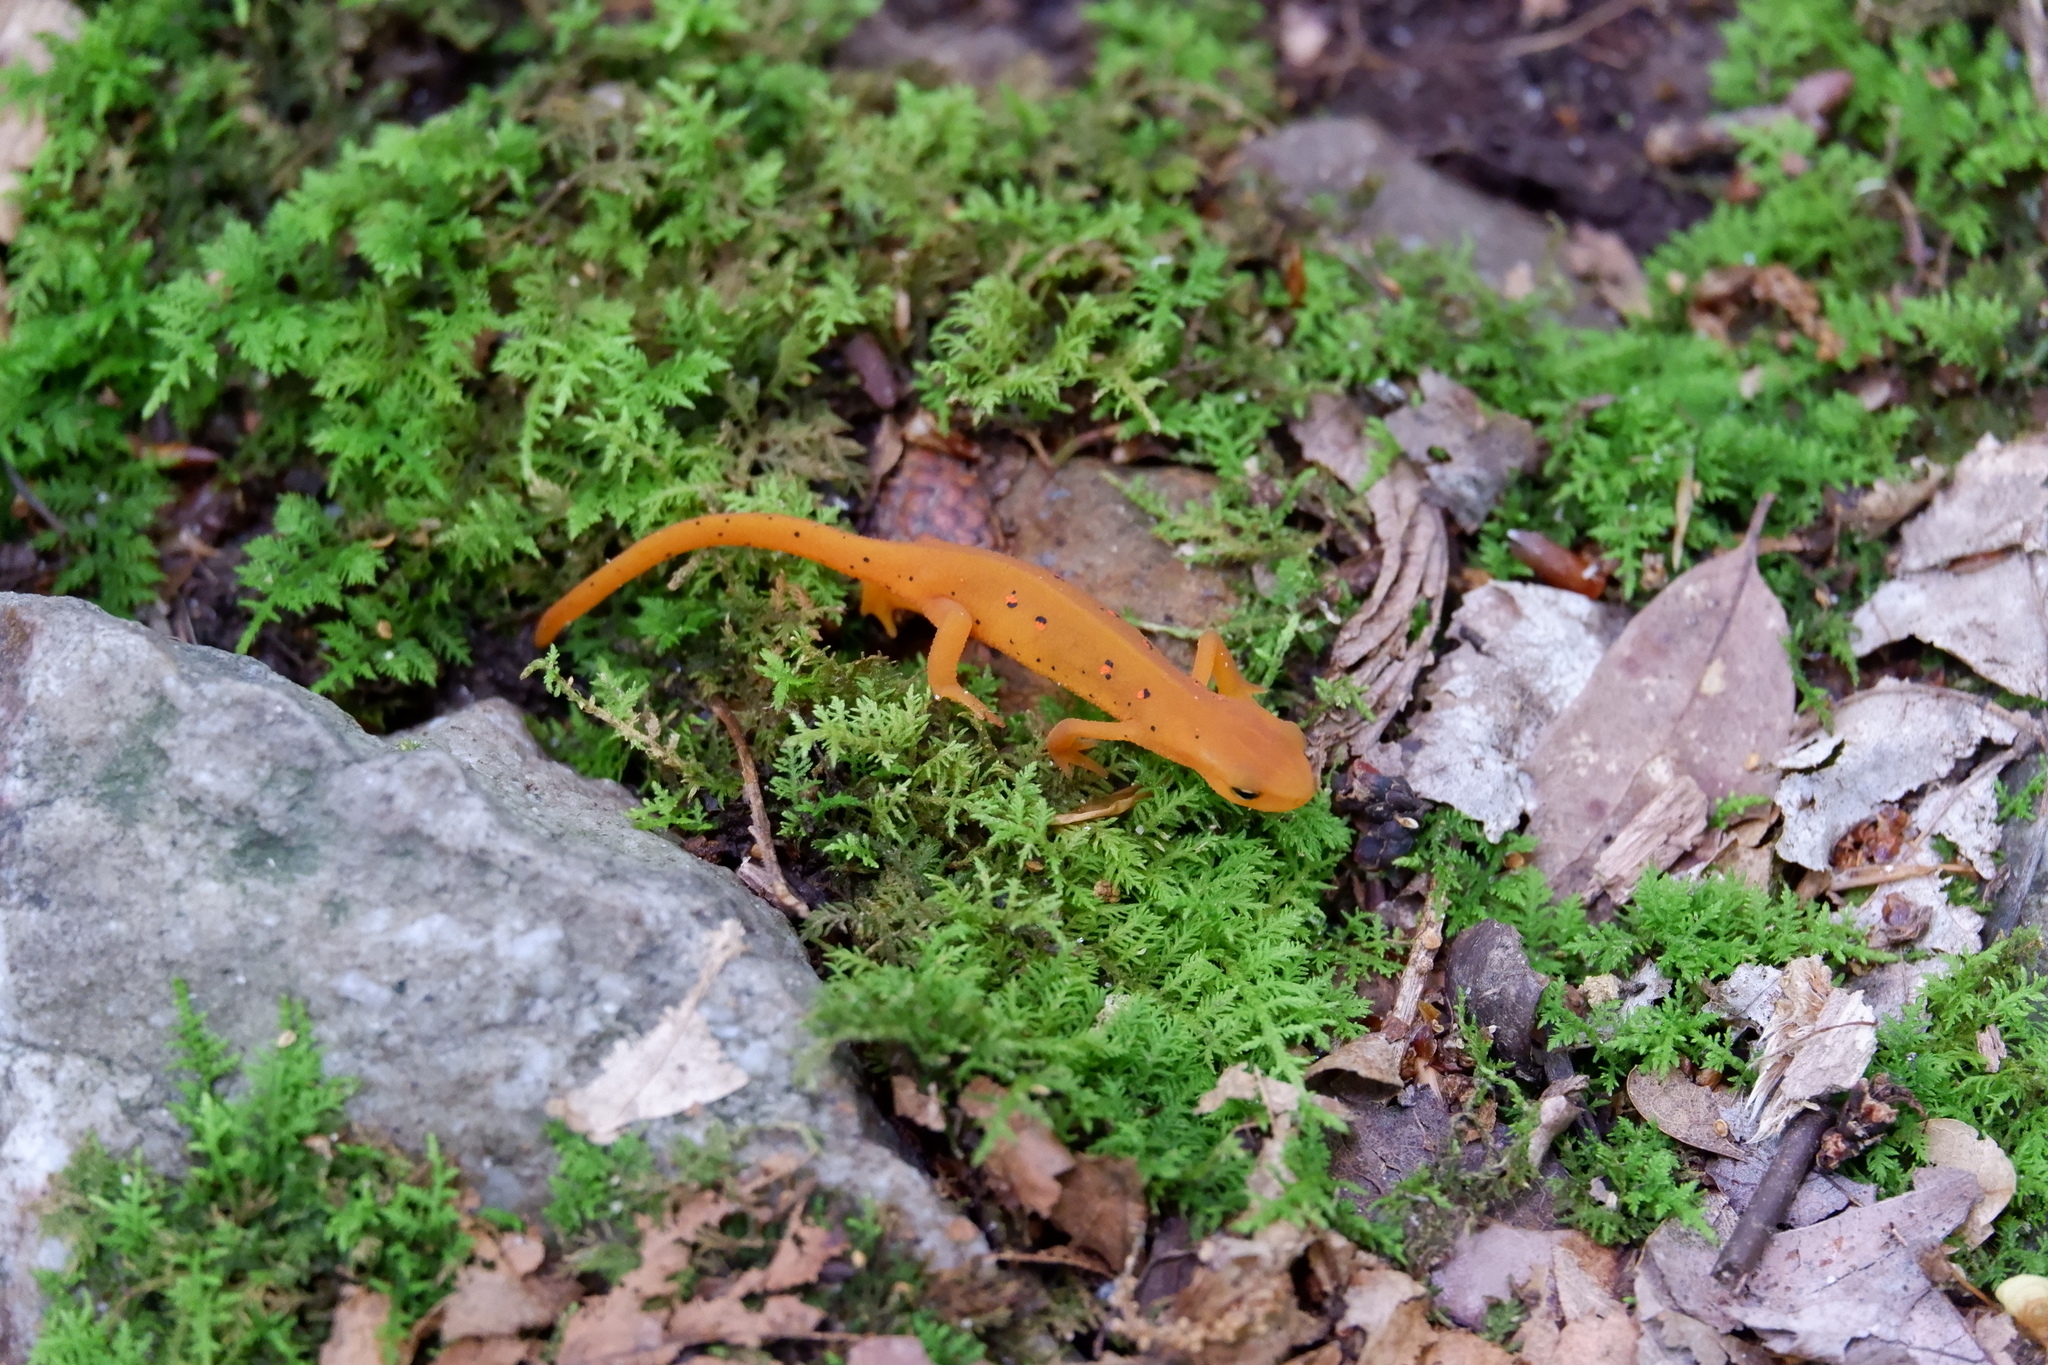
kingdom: Animalia
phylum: Chordata
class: Amphibia
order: Caudata
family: Salamandridae
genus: Notophthalmus
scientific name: Notophthalmus viridescens
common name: Eastern newt
